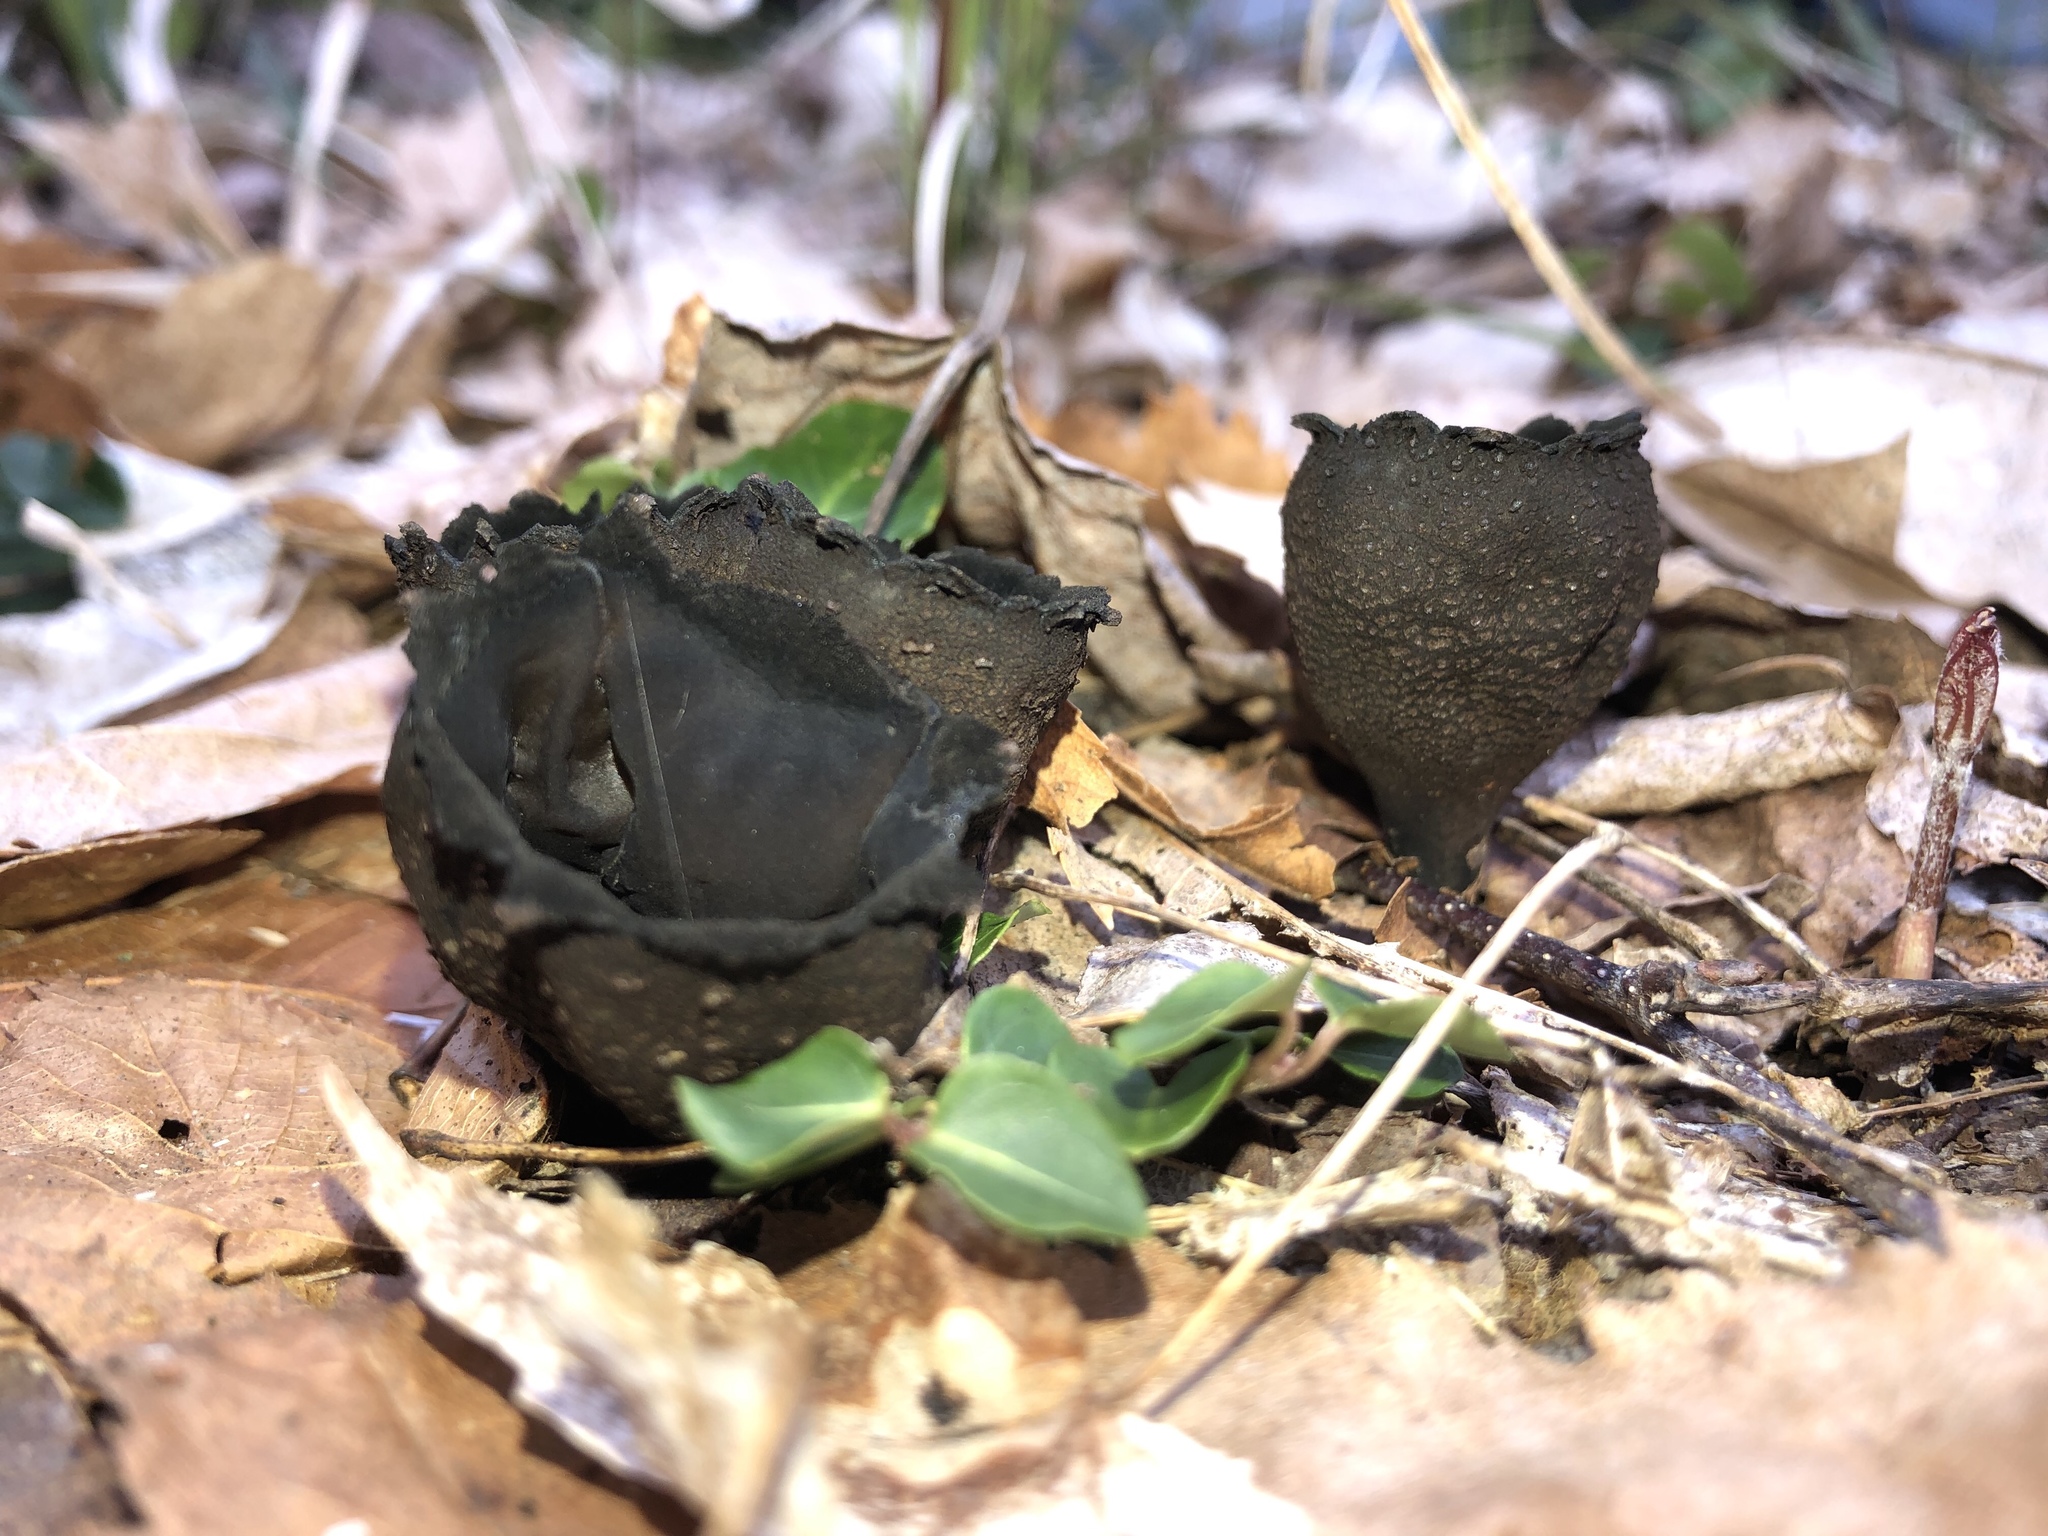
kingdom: Fungi
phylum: Ascomycota
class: Pezizomycetes
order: Pezizales
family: Sarcosomataceae
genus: Urnula
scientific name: Urnula craterium
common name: Devil's urn
